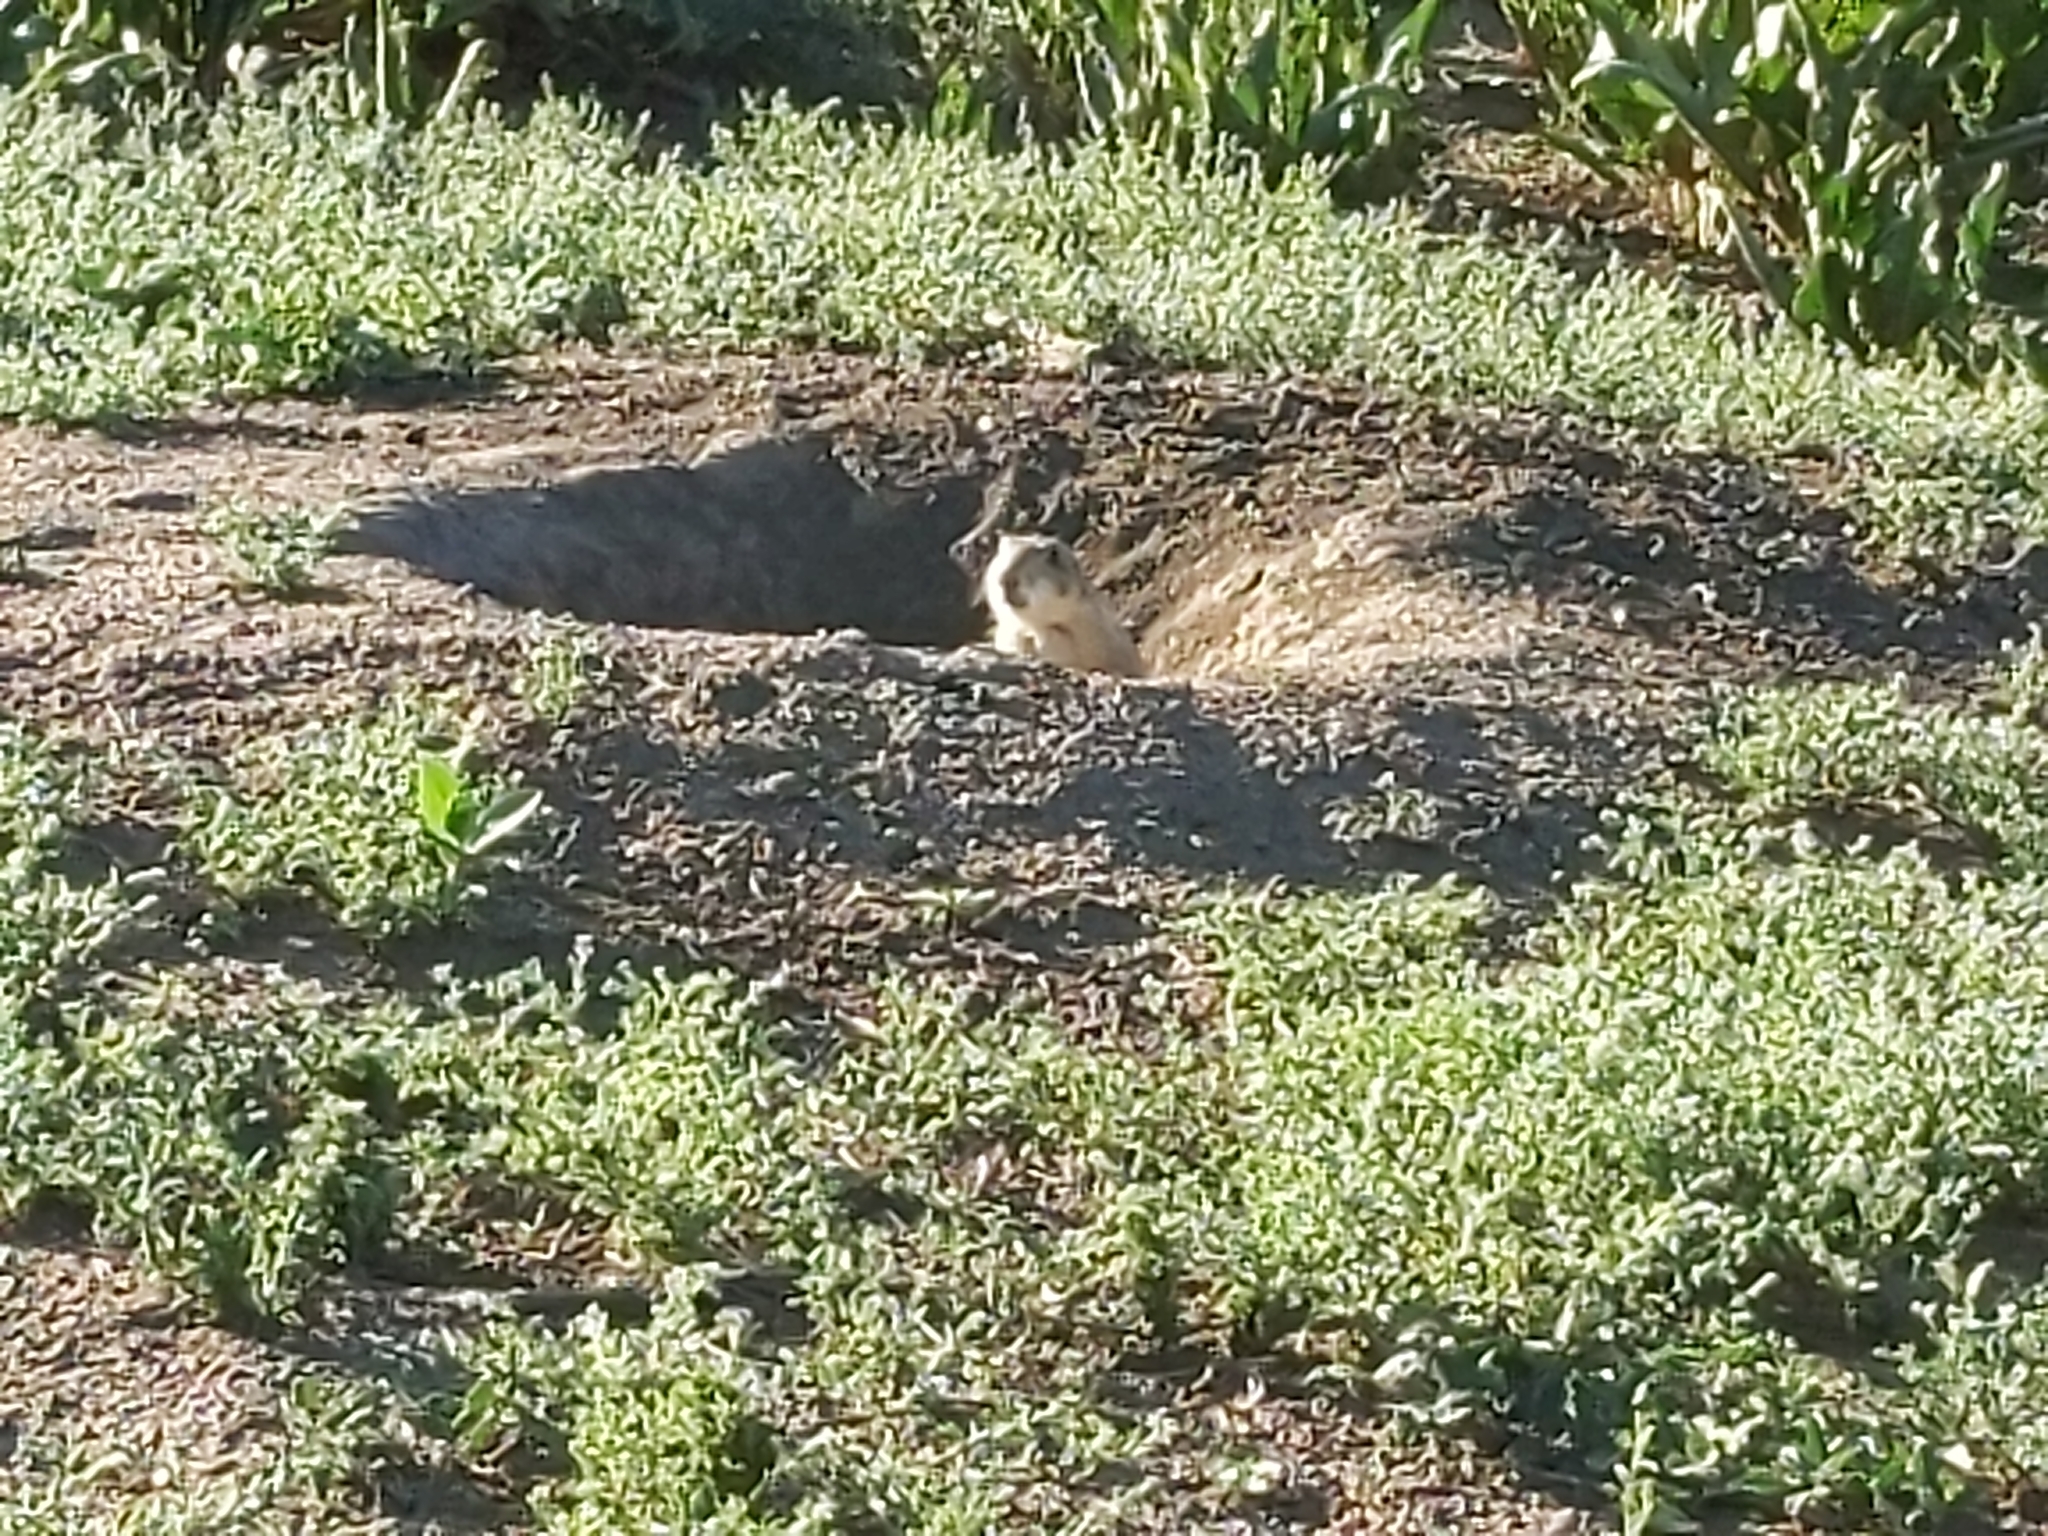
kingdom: Animalia
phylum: Chordata
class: Mammalia
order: Rodentia
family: Sciuridae
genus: Cynomys
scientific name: Cynomys ludovicianus
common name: Black-tailed prairie dog
